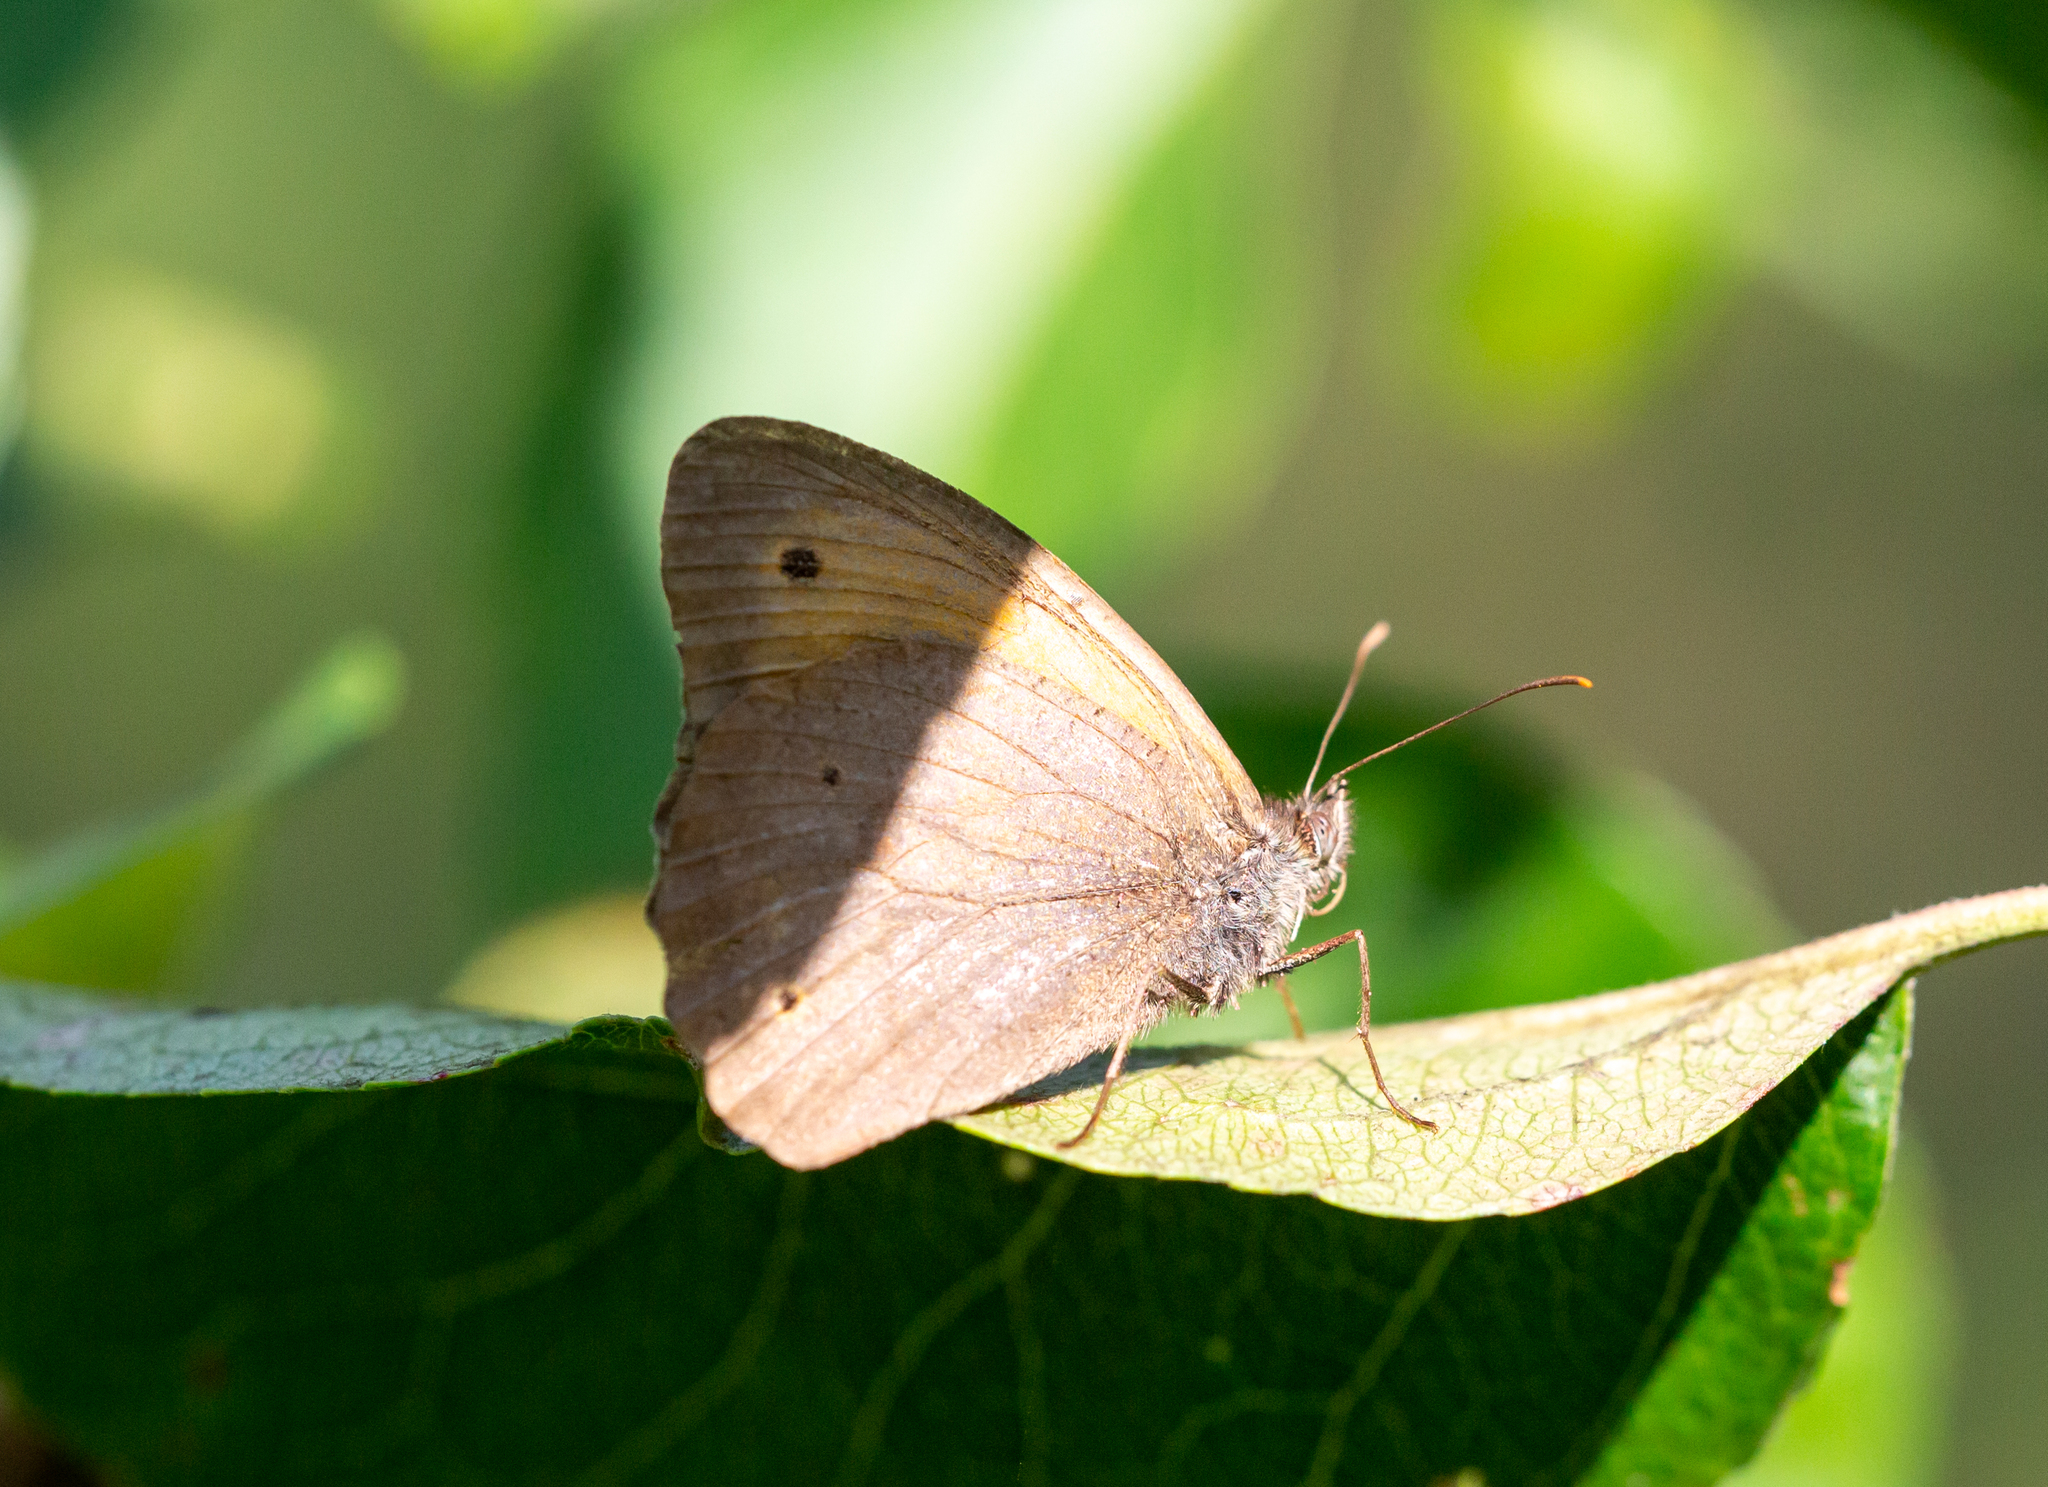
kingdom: Animalia
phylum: Arthropoda
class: Insecta
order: Lepidoptera
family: Nymphalidae
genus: Maniola
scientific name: Maniola jurtina
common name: Meadow brown
